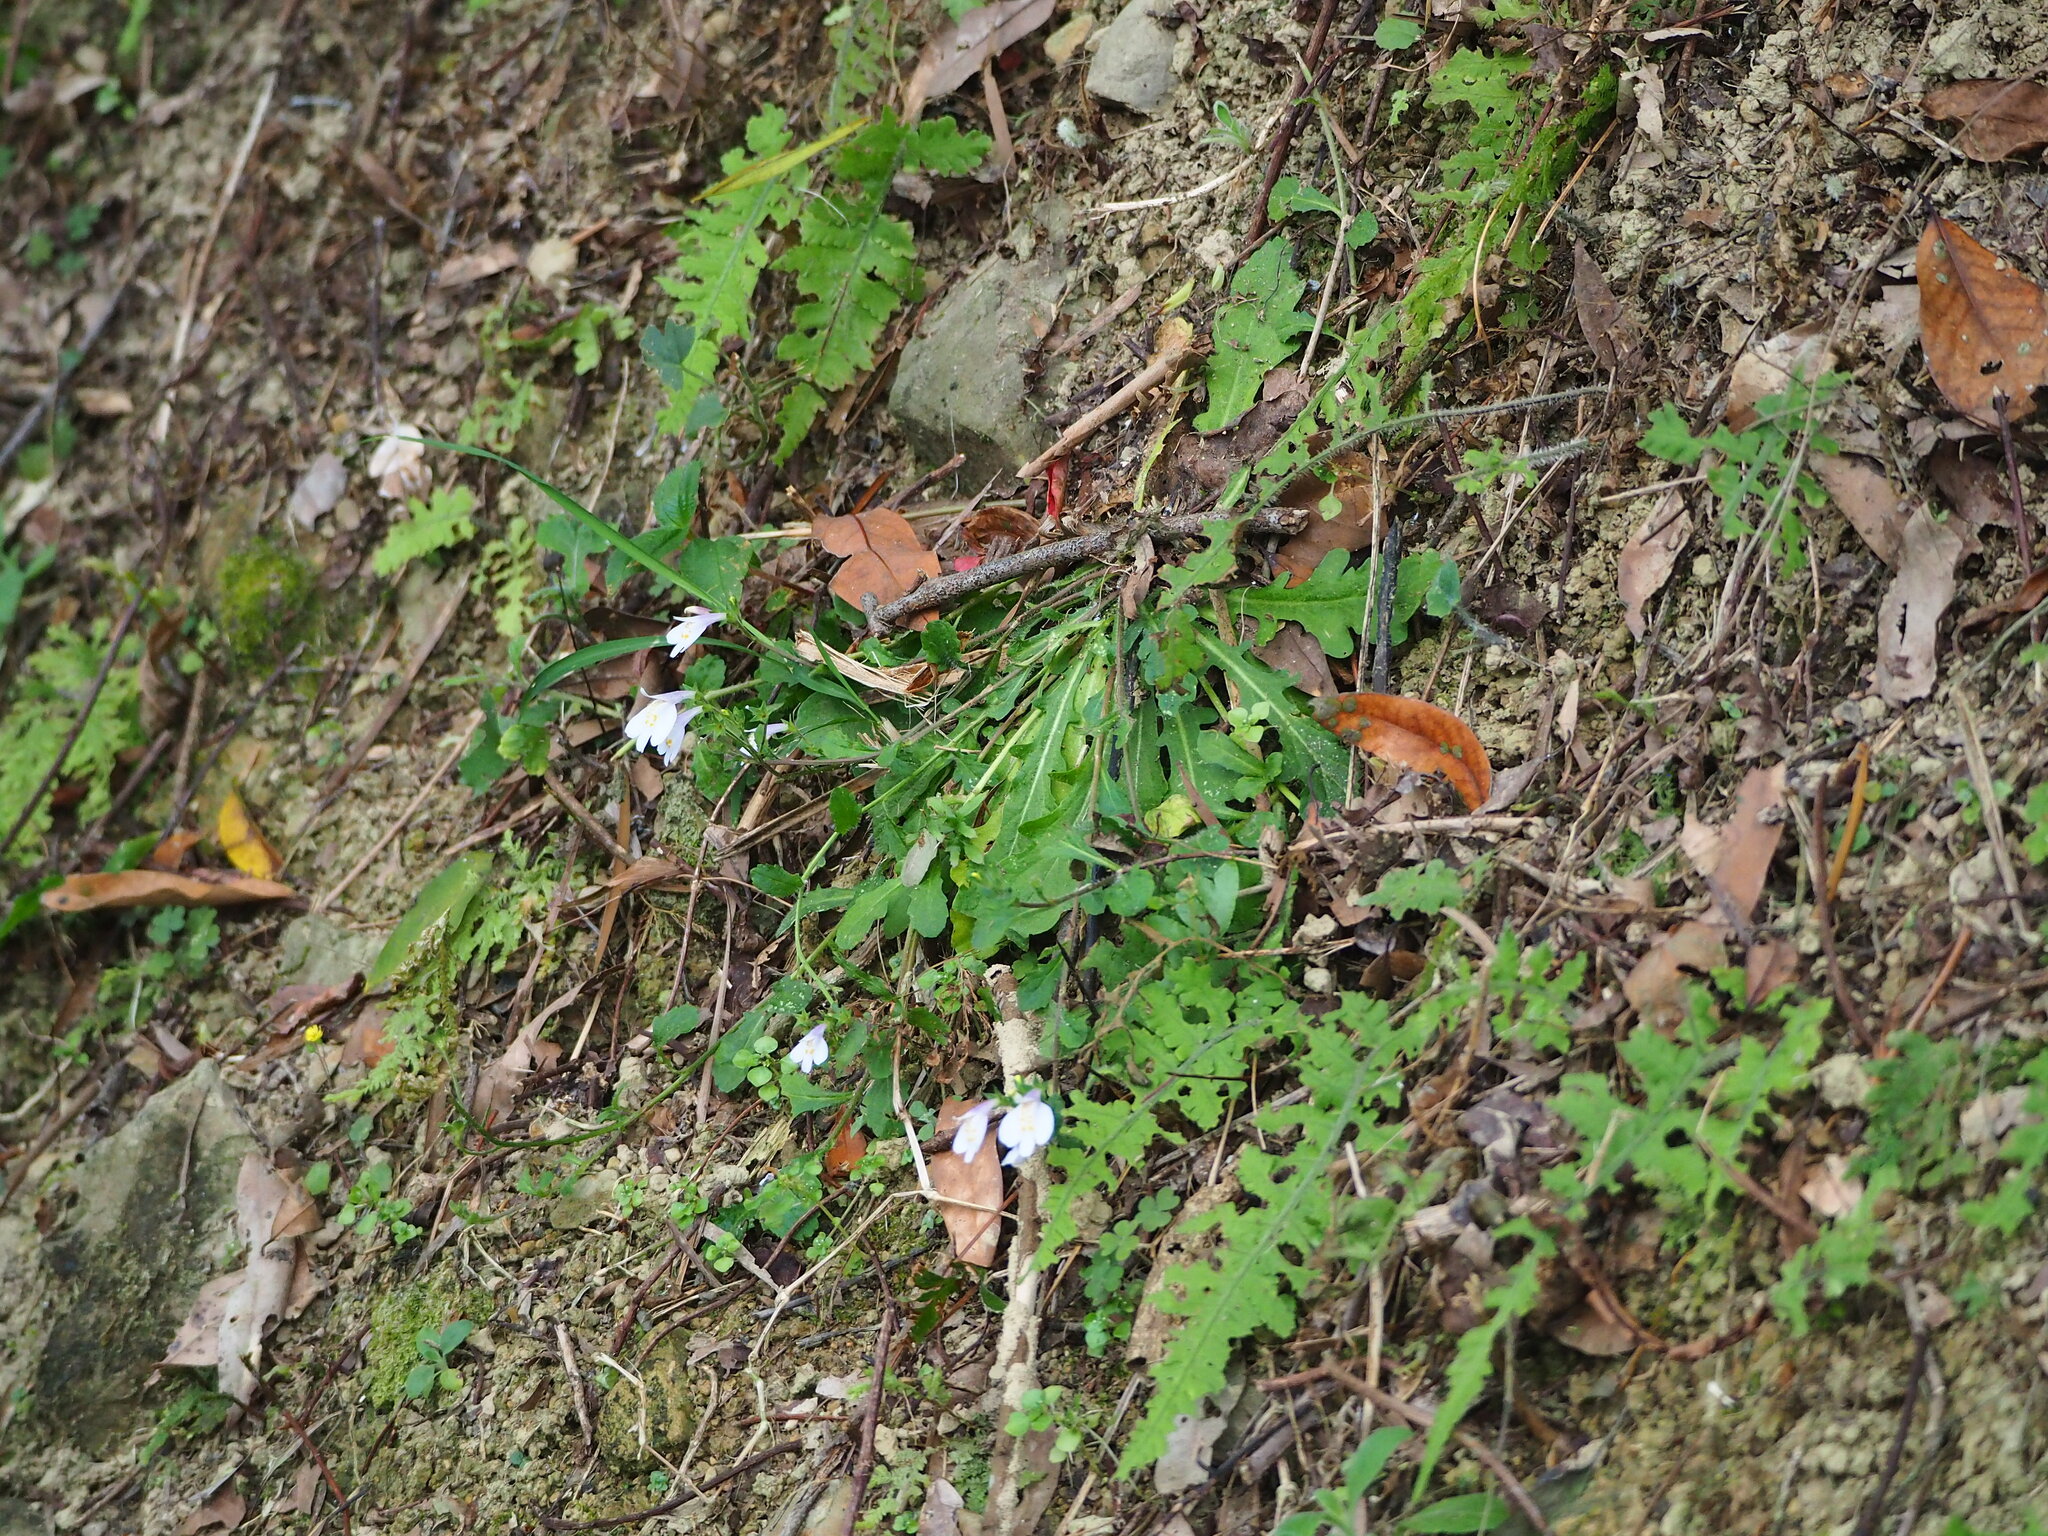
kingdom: Plantae
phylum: Tracheophyta
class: Magnoliopsida
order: Lamiales
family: Mazaceae
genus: Mazus
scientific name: Mazus fauriei
